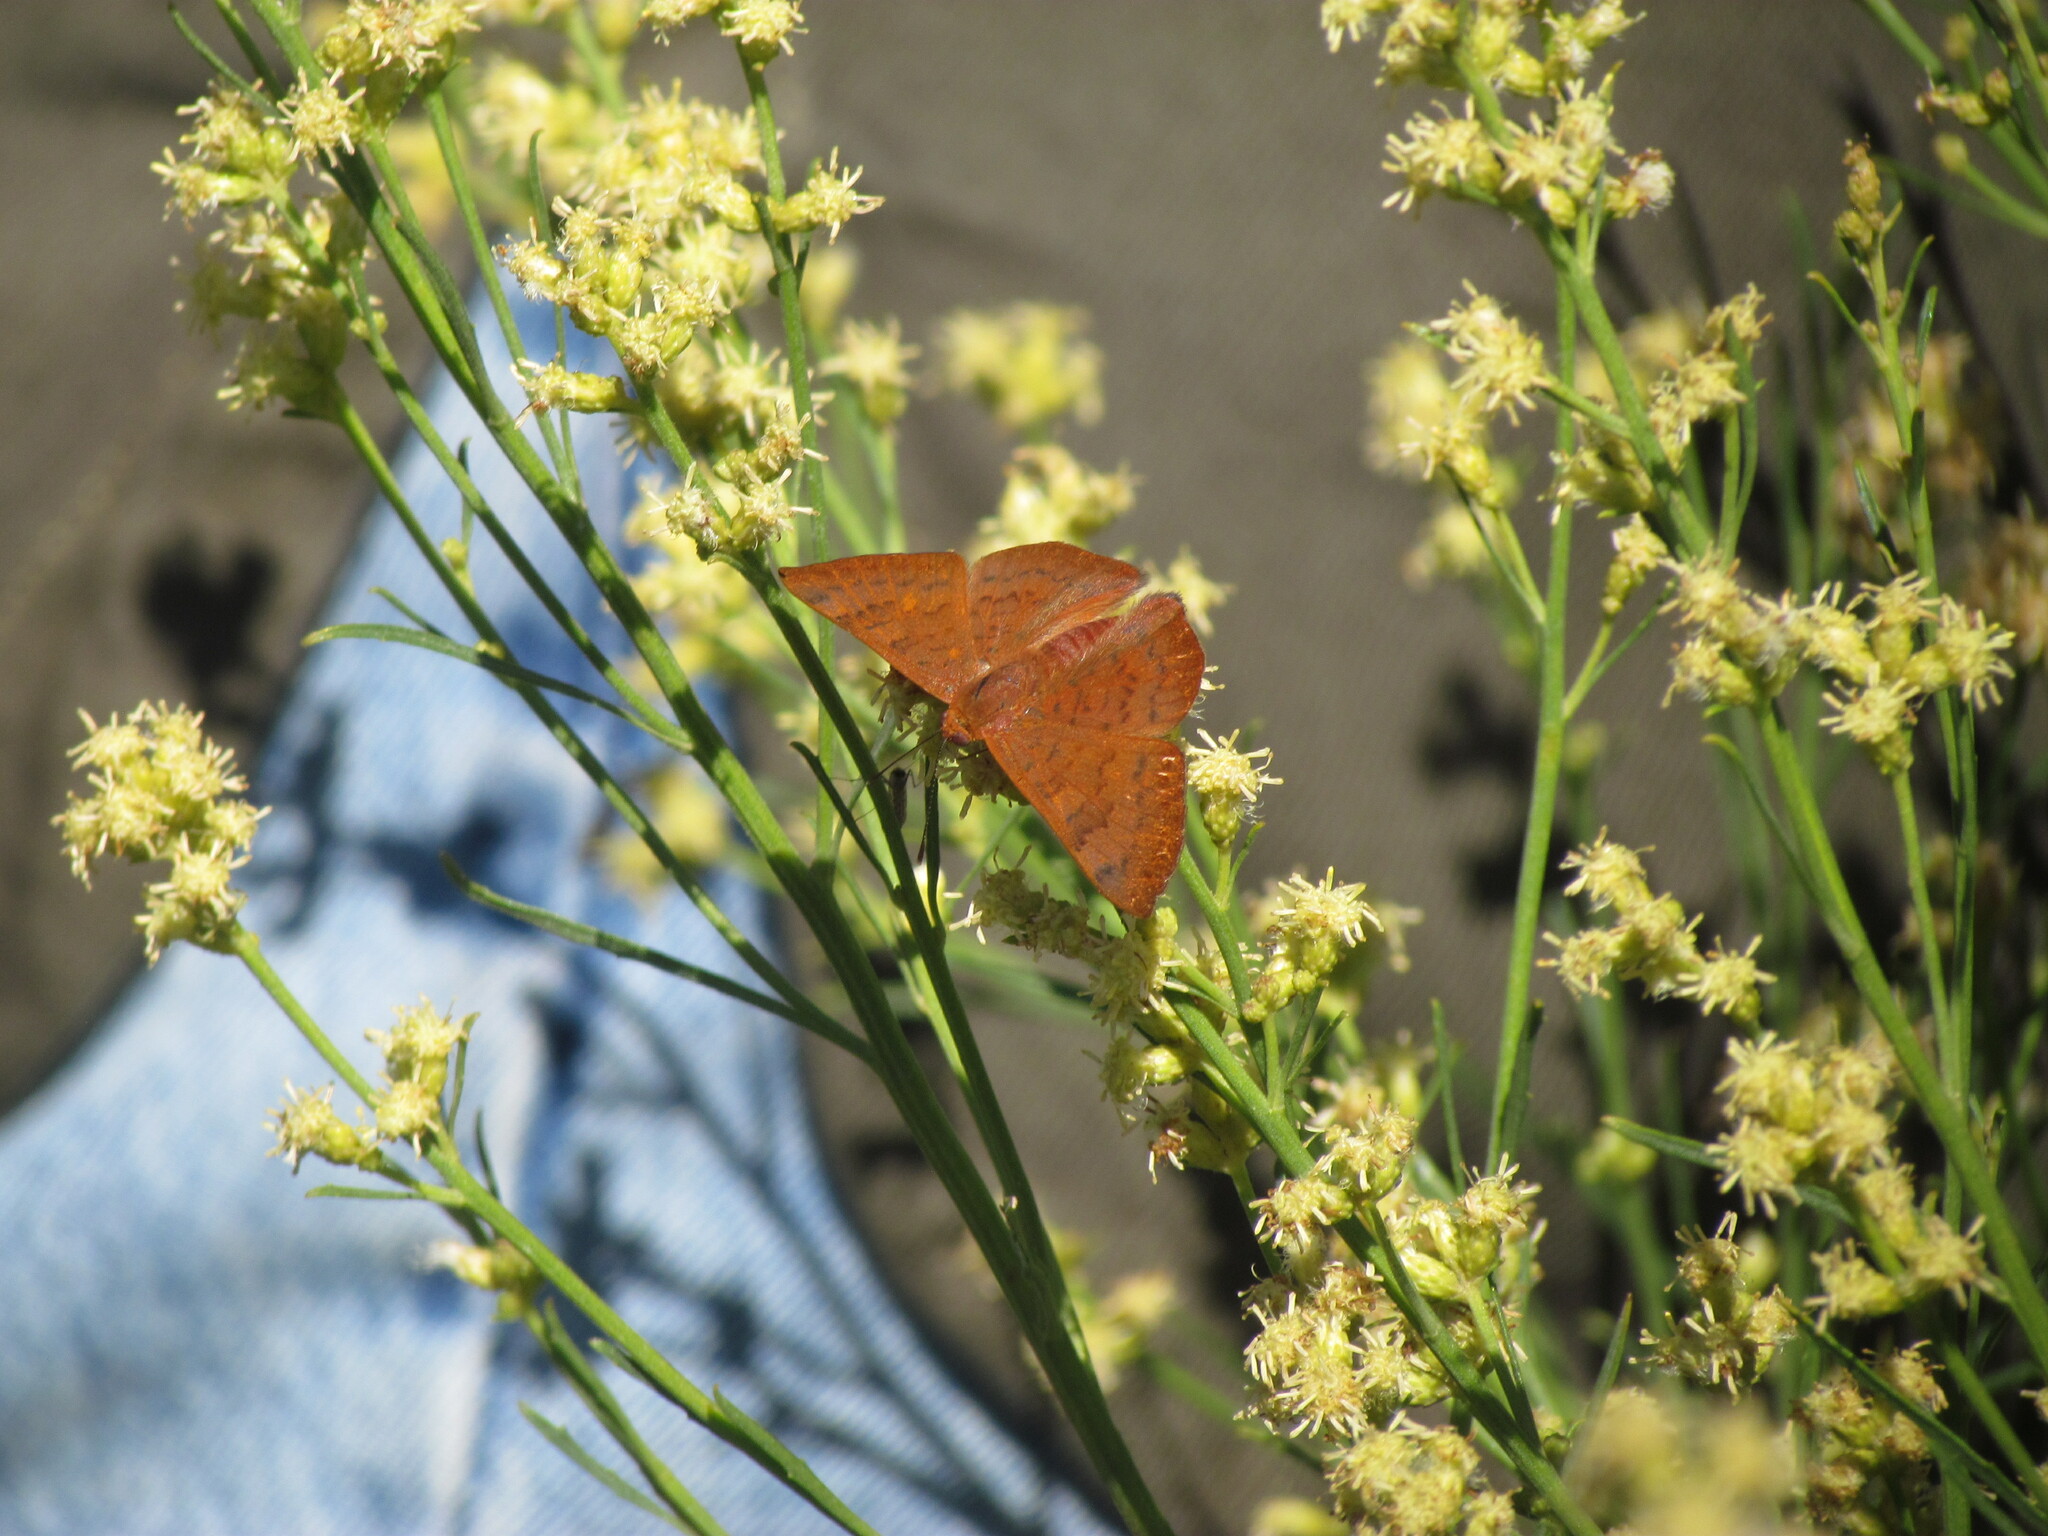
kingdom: Animalia
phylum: Arthropoda
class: Insecta
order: Lepidoptera
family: Lycaenidae
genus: Emesis
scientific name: Emesis russula
